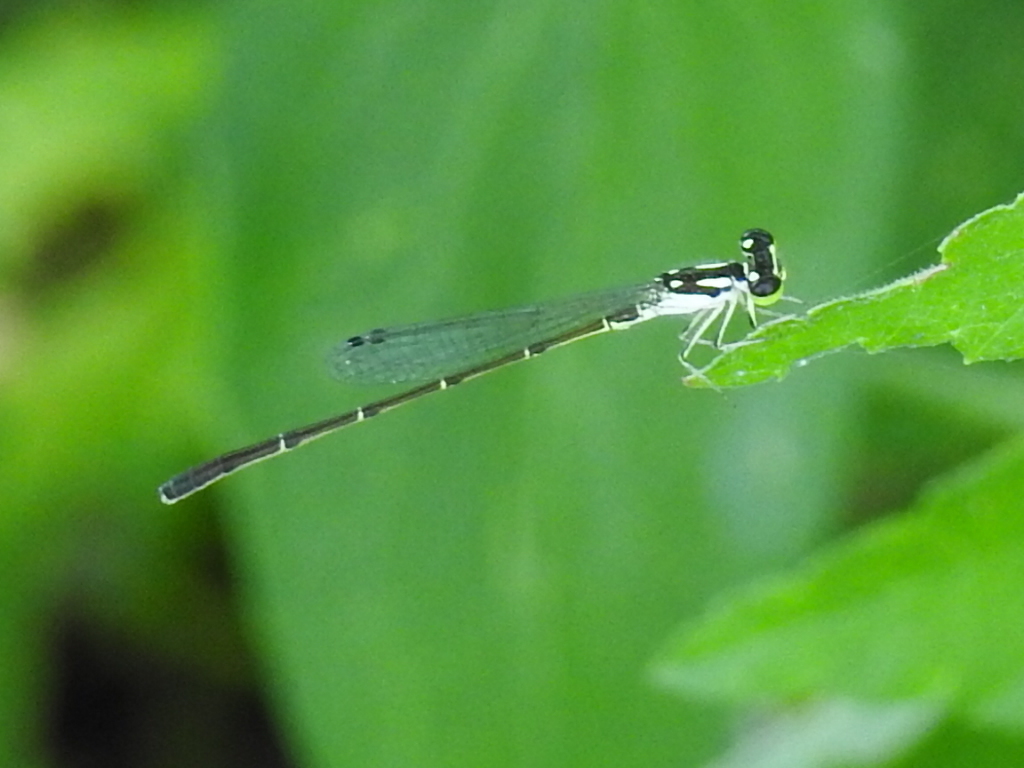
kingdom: Animalia
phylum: Arthropoda
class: Insecta
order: Odonata
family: Coenagrionidae
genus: Ischnura
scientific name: Ischnura posita
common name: Fragile forktail
